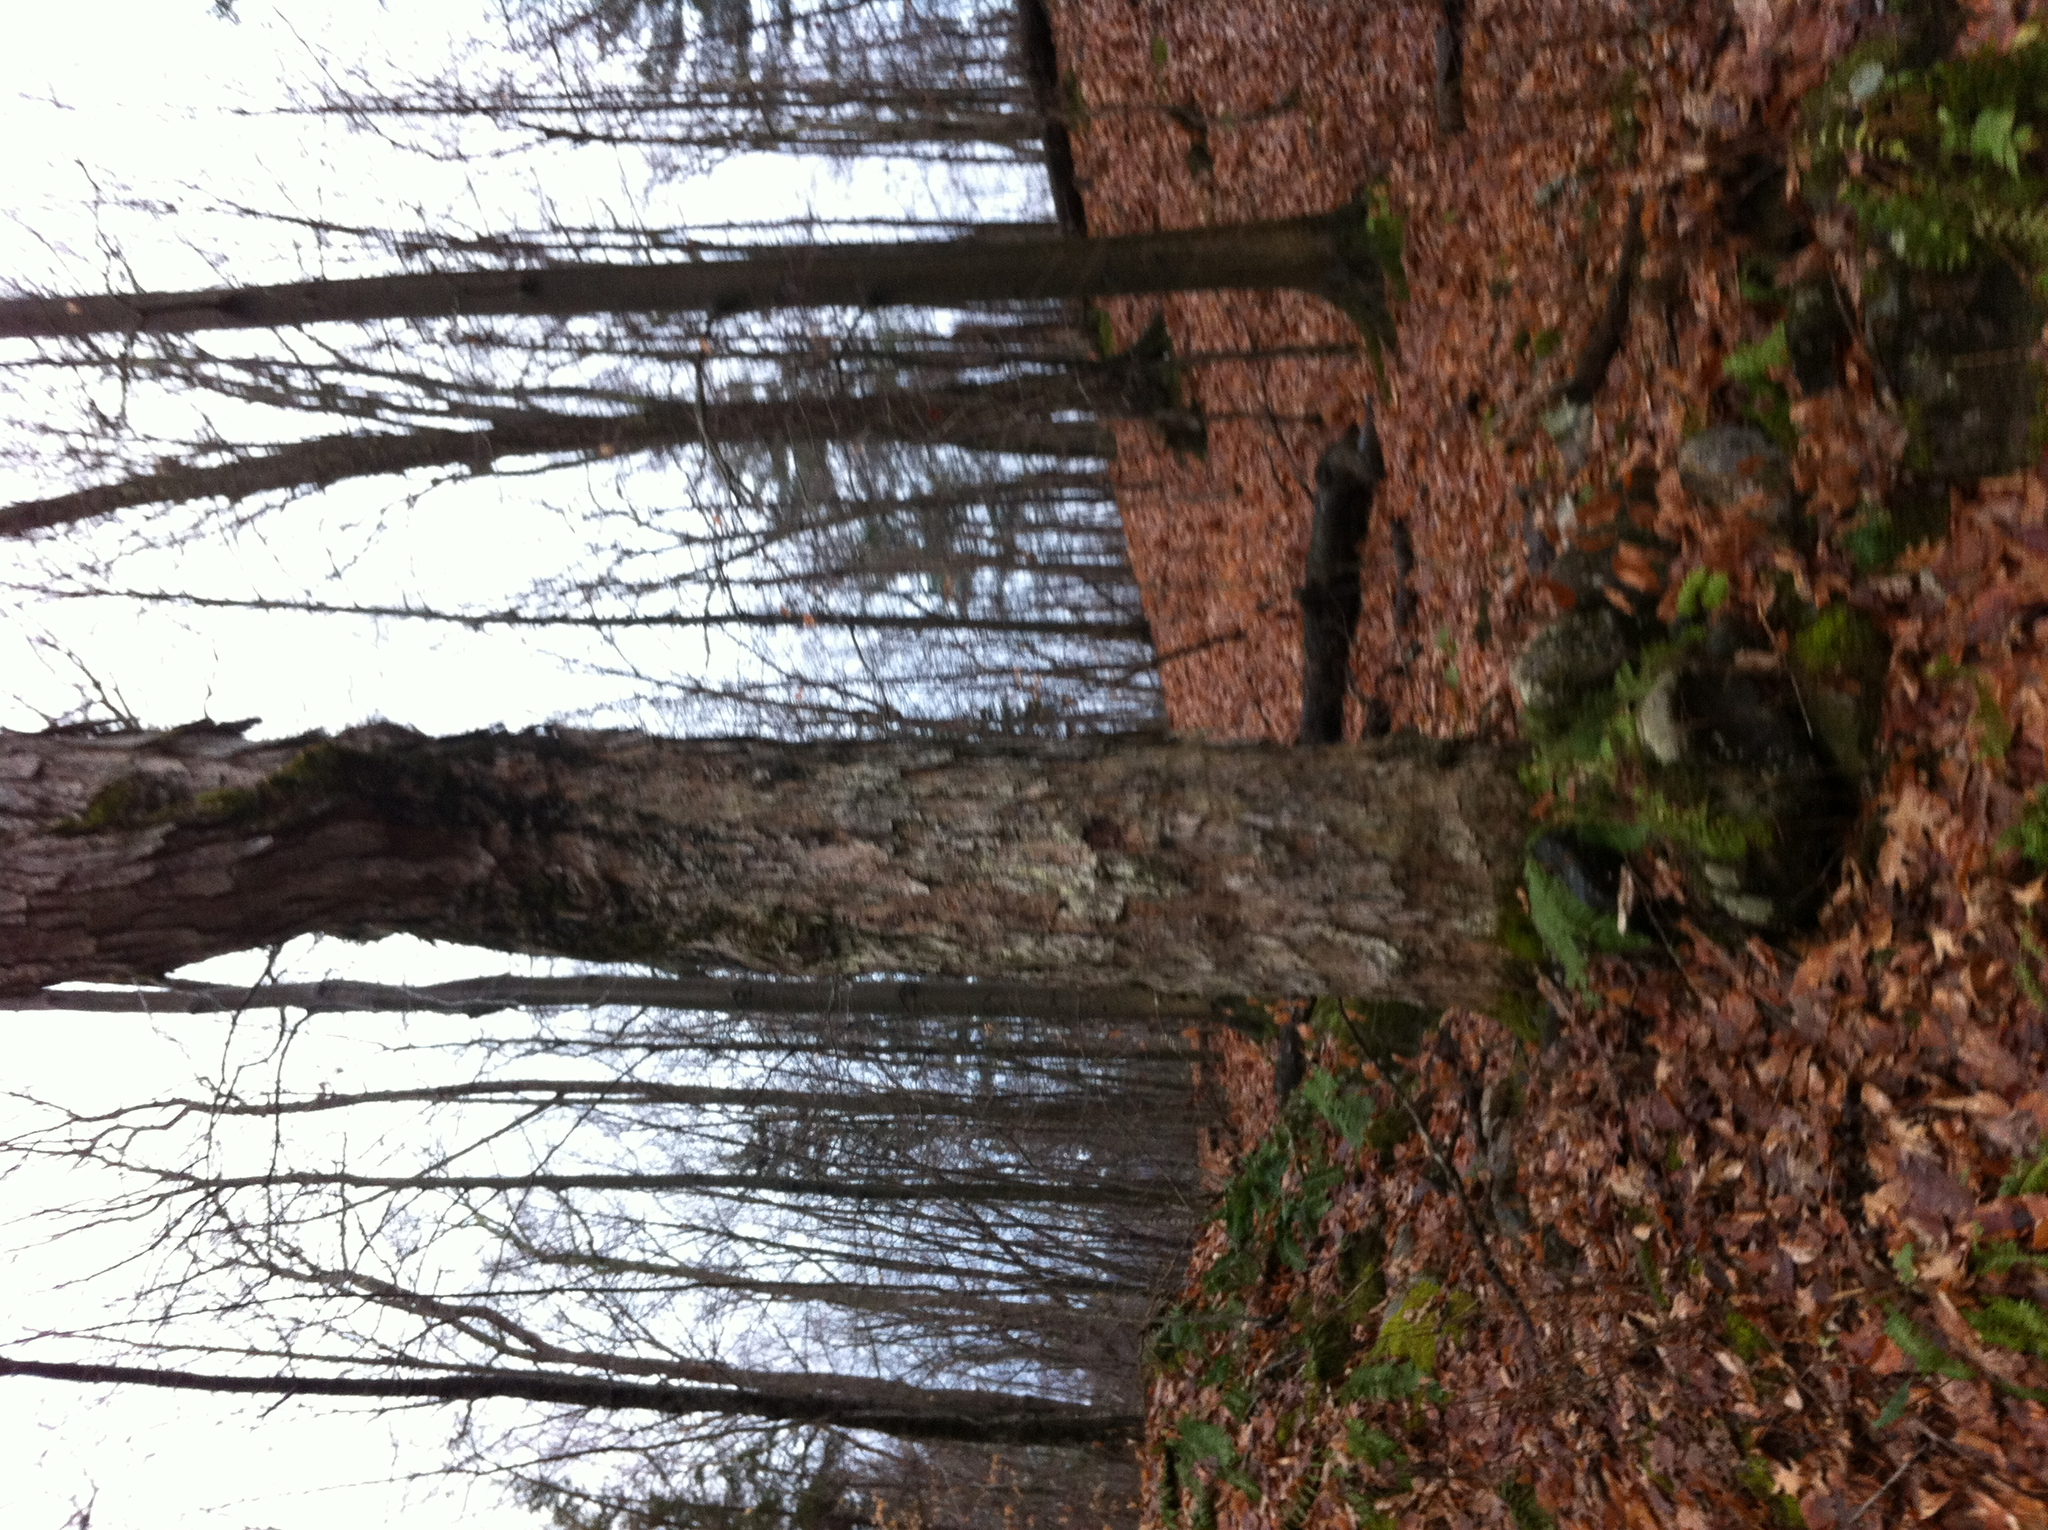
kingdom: Plantae
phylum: Tracheophyta
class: Magnoliopsida
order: Fagales
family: Fagaceae
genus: Quercus
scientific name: Quercus alba
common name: White oak
